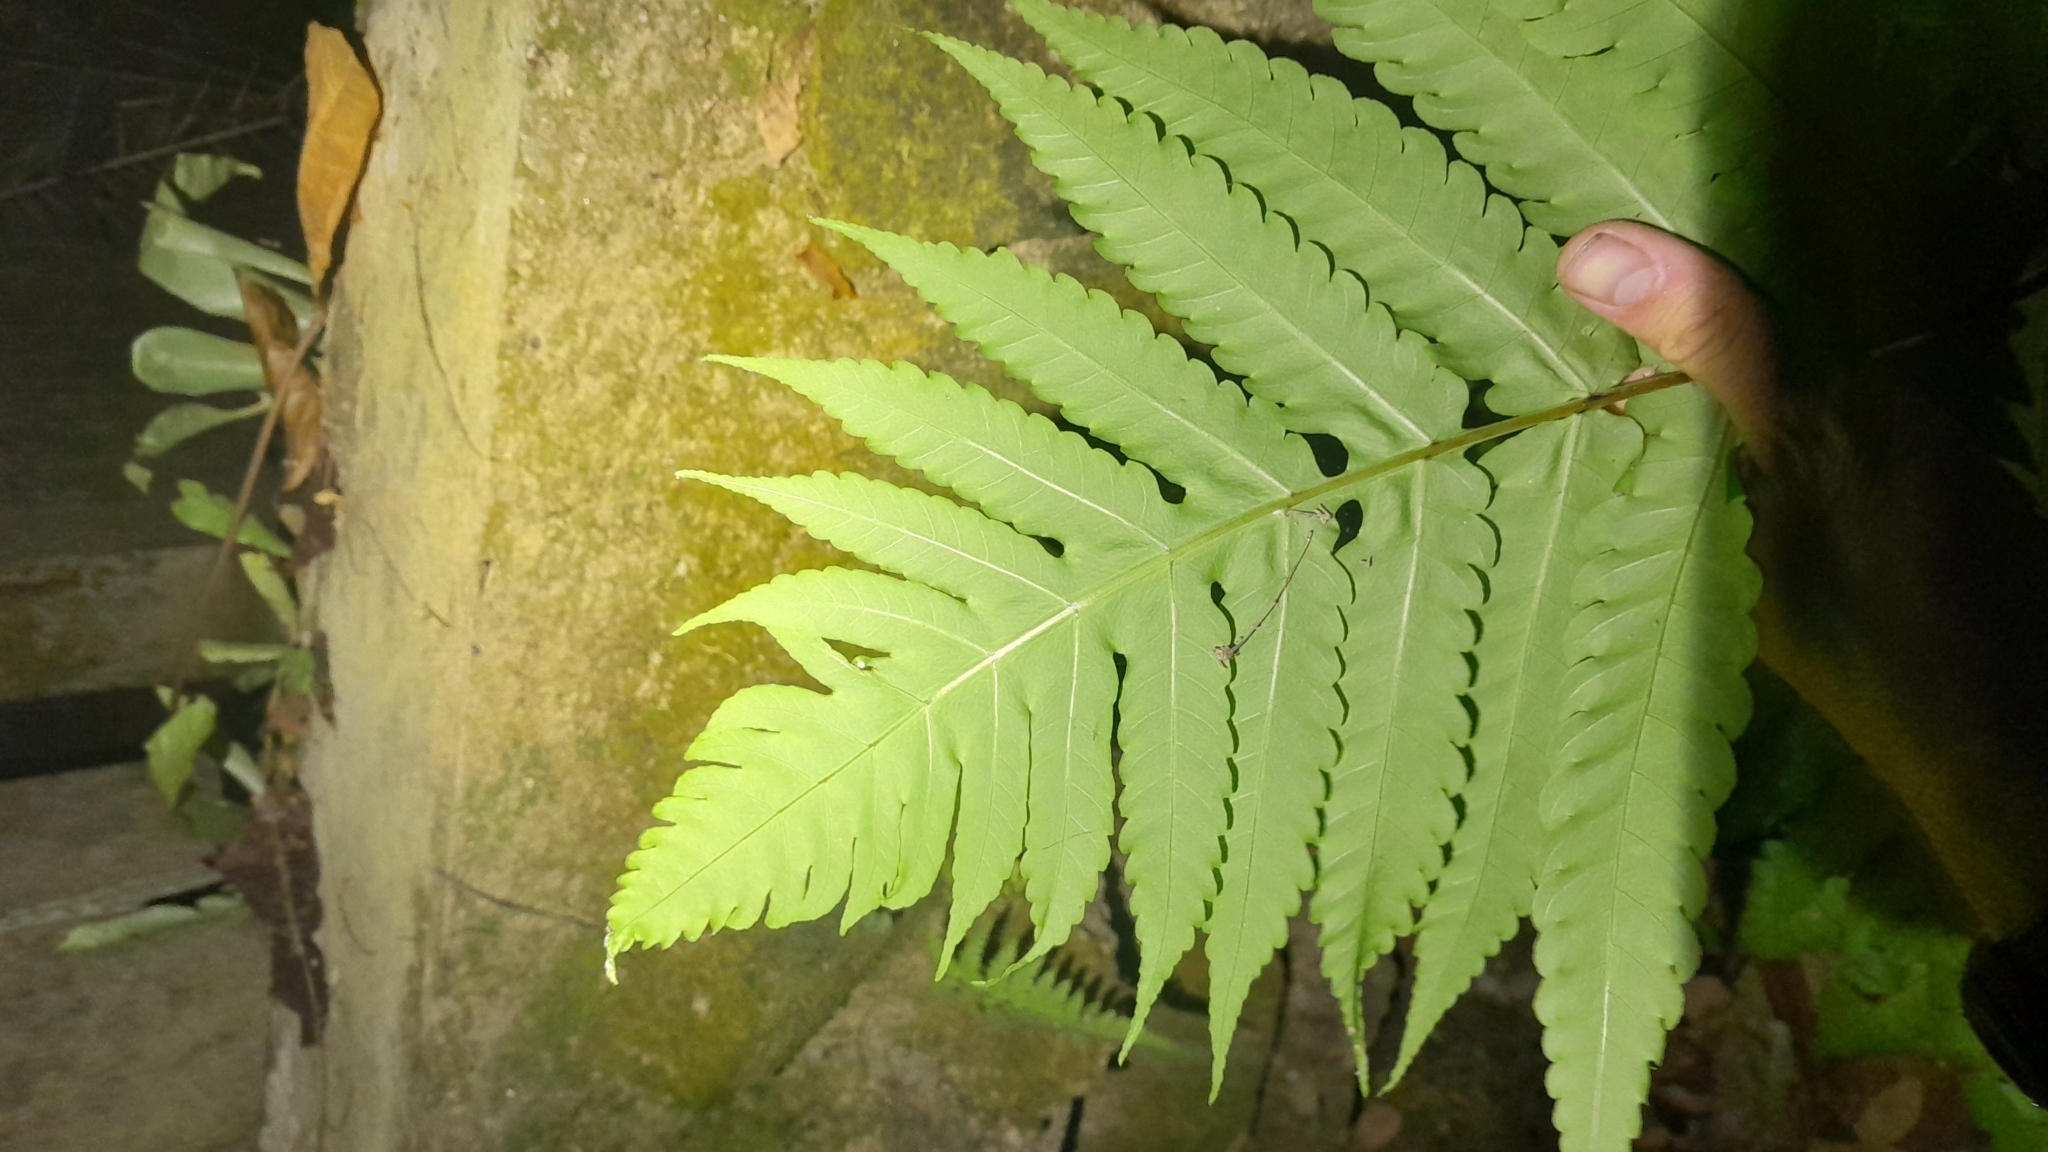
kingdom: Plantae
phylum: Tracheophyta
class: Polypodiopsida
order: Polypodiales
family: Dryopteridaceae
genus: Pleocnemia
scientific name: Pleocnemia irregularis
